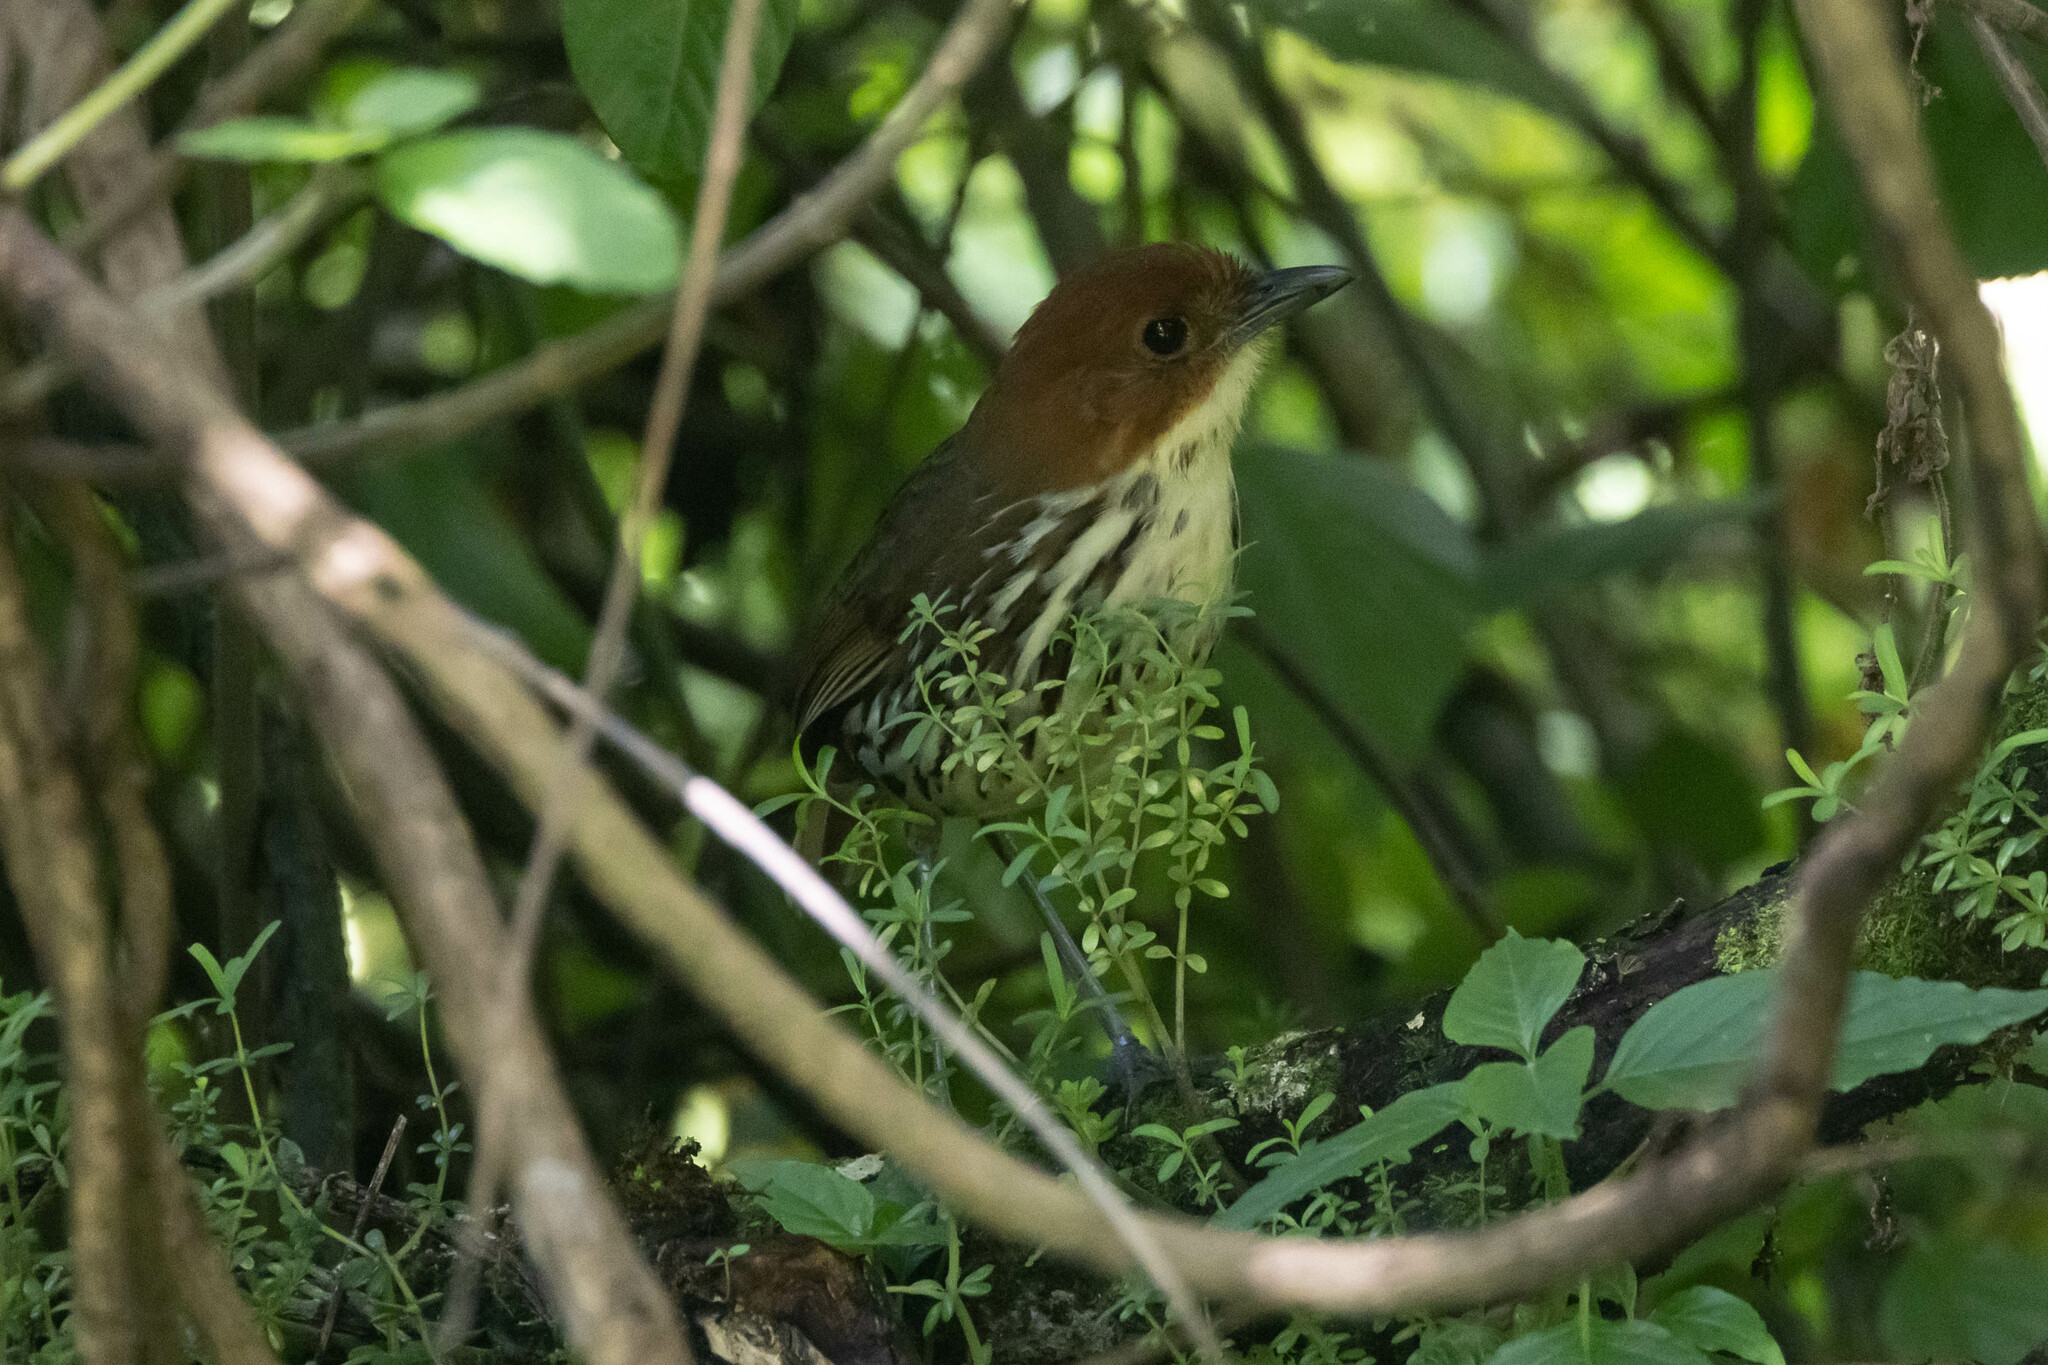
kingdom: Animalia
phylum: Chordata
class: Aves
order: Passeriformes
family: Grallariidae
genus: Grallaria
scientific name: Grallaria ruficapilla
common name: Chestnut-crowned antpitta
